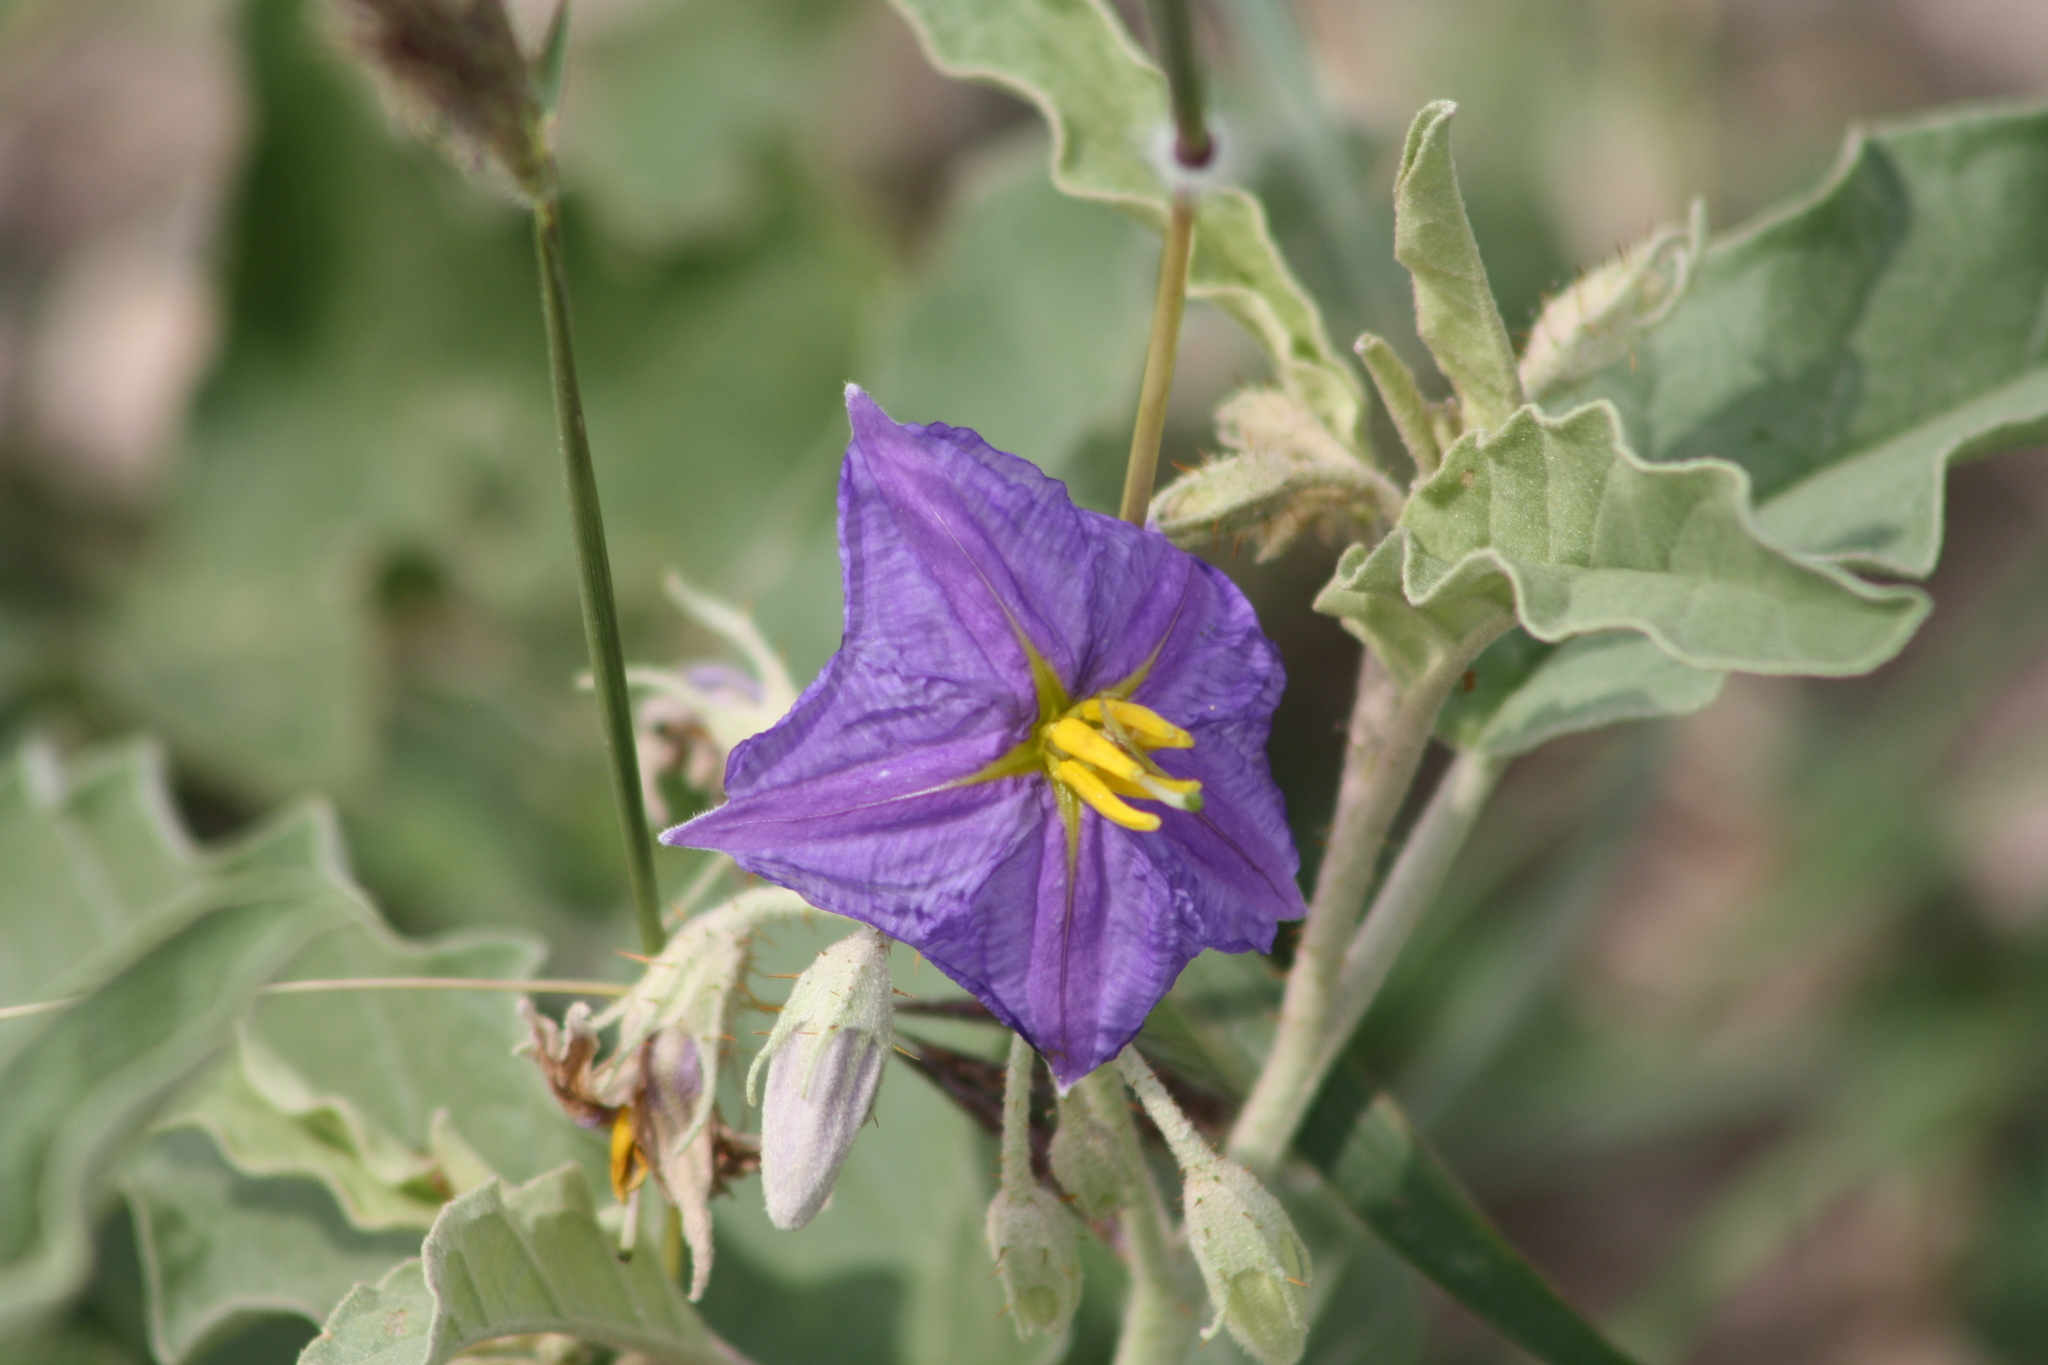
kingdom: Plantae
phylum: Tracheophyta
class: Magnoliopsida
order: Solanales
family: Solanaceae
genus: Solanum
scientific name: Solanum elaeagnifolium
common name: Silverleaf nightshade
